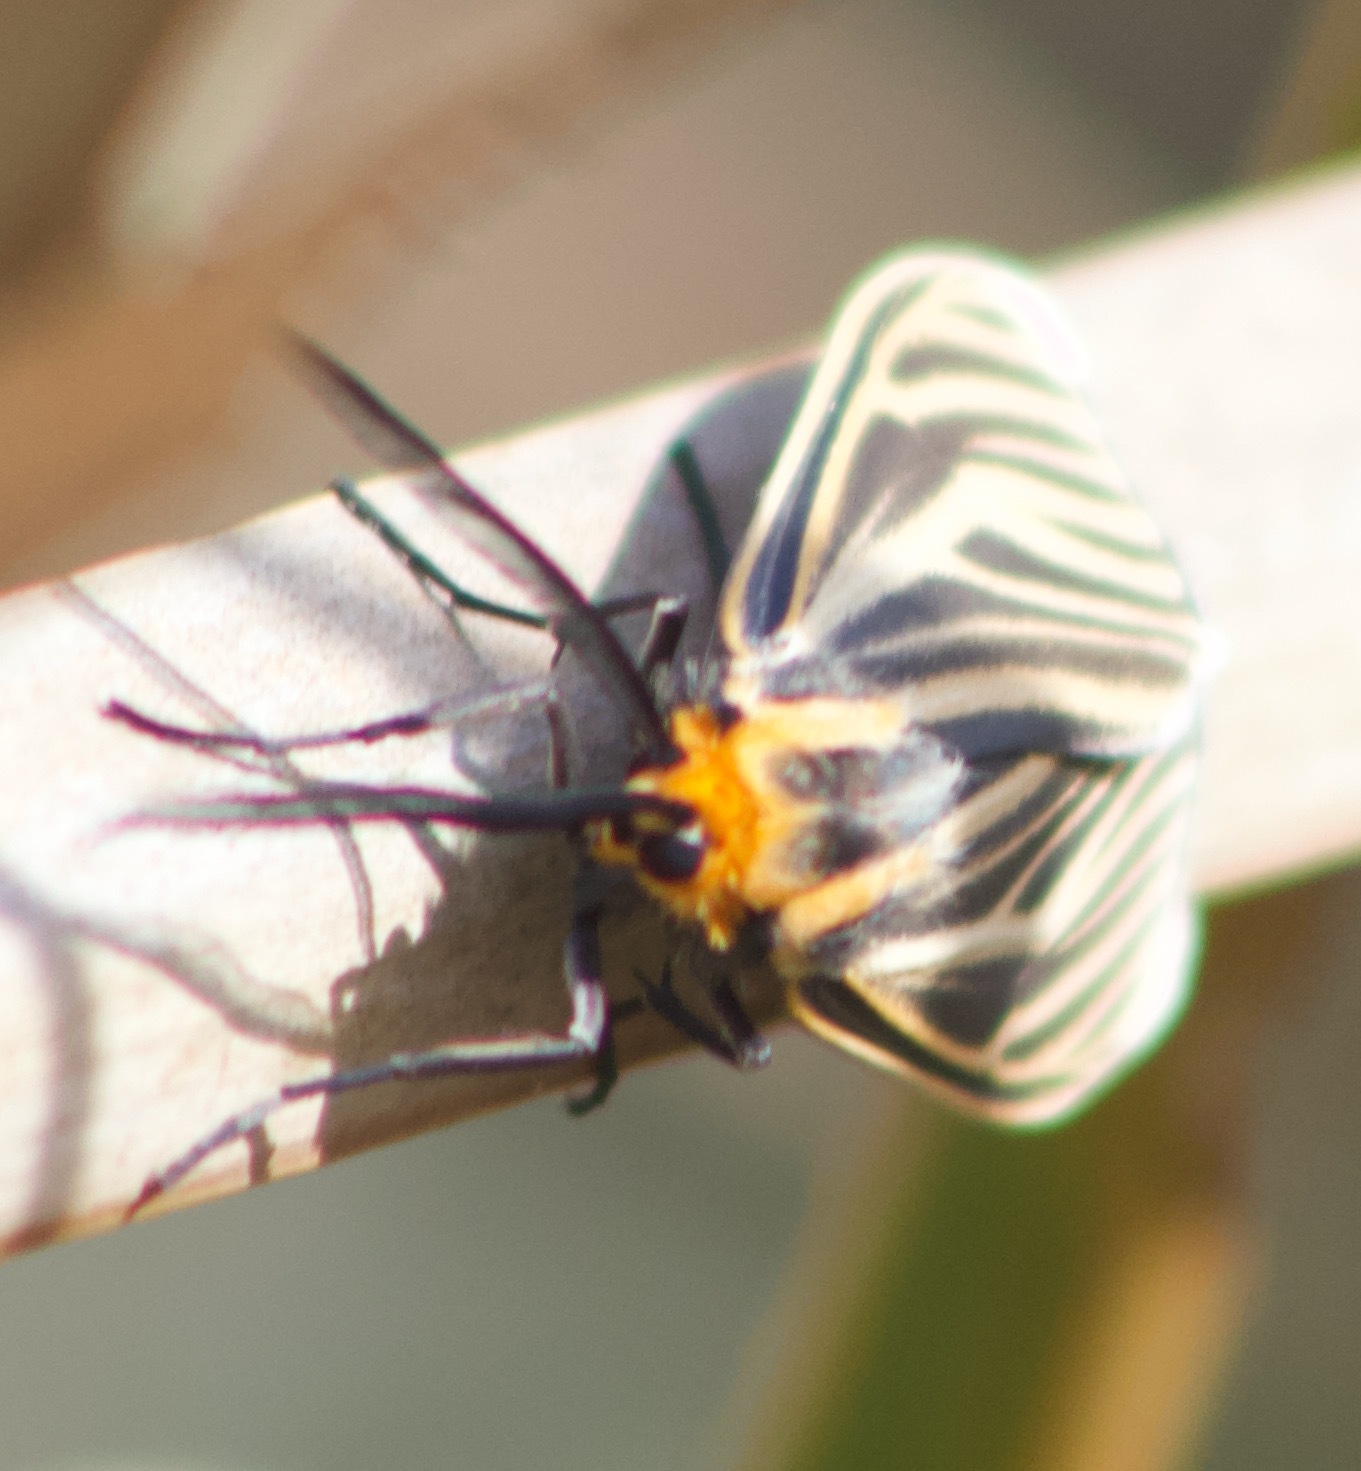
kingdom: Animalia
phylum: Arthropoda
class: Insecta
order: Lepidoptera
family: Erebidae
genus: Ctenucha
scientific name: Ctenucha vittigerum
